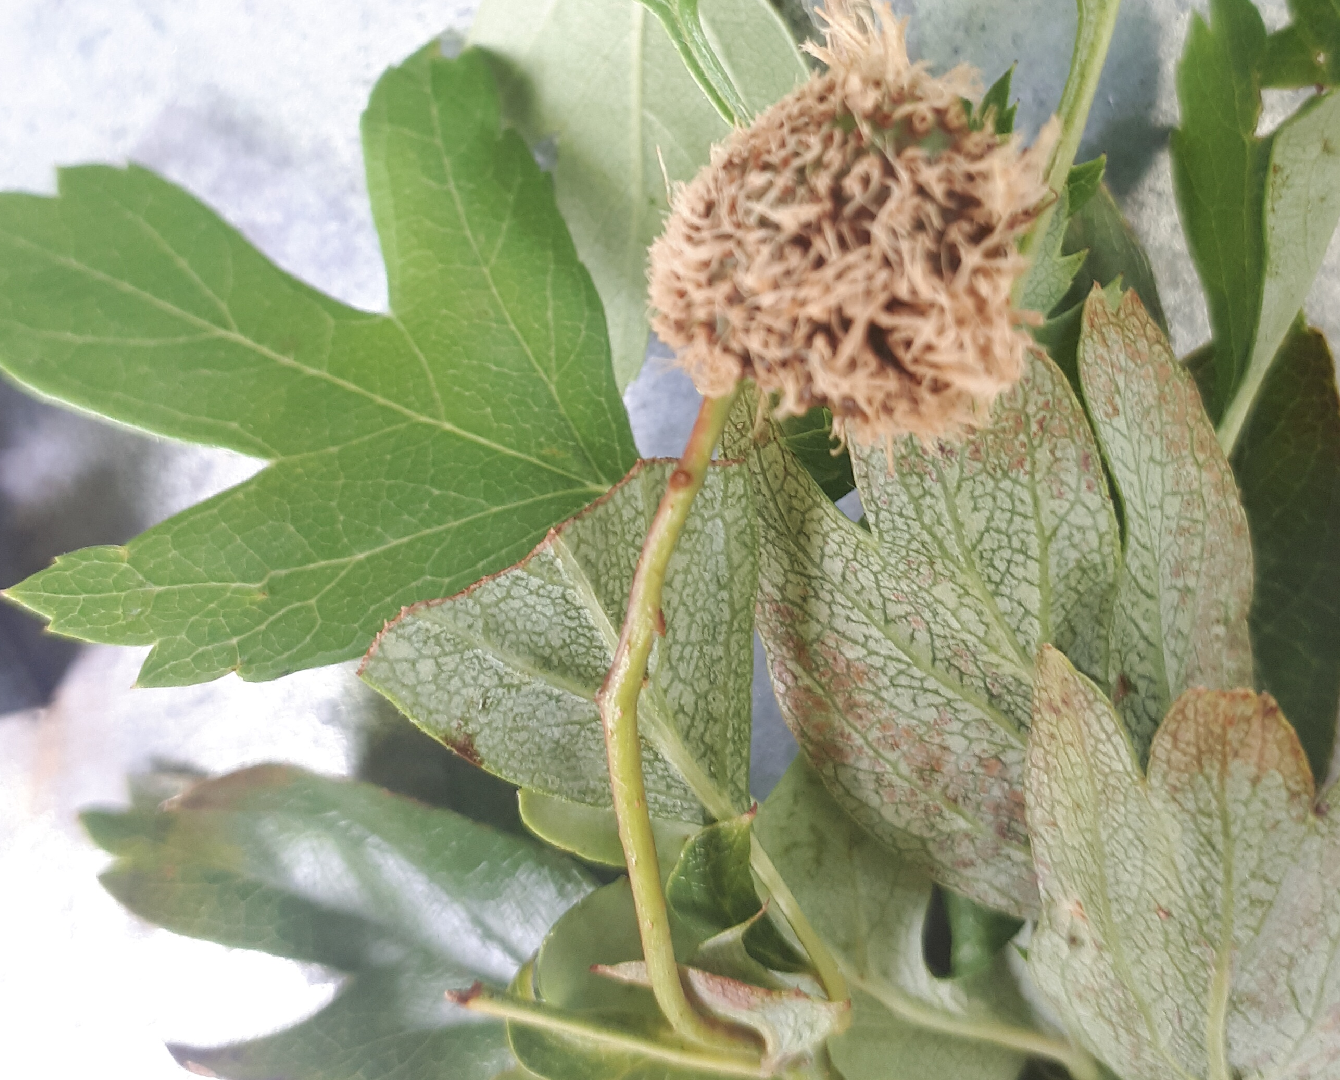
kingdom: Fungi
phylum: Basidiomycota
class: Pucciniomycetes
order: Pucciniales
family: Gymnosporangiaceae
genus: Gymnosporangium
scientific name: Gymnosporangium clavariiforme
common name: Tongues of fire
